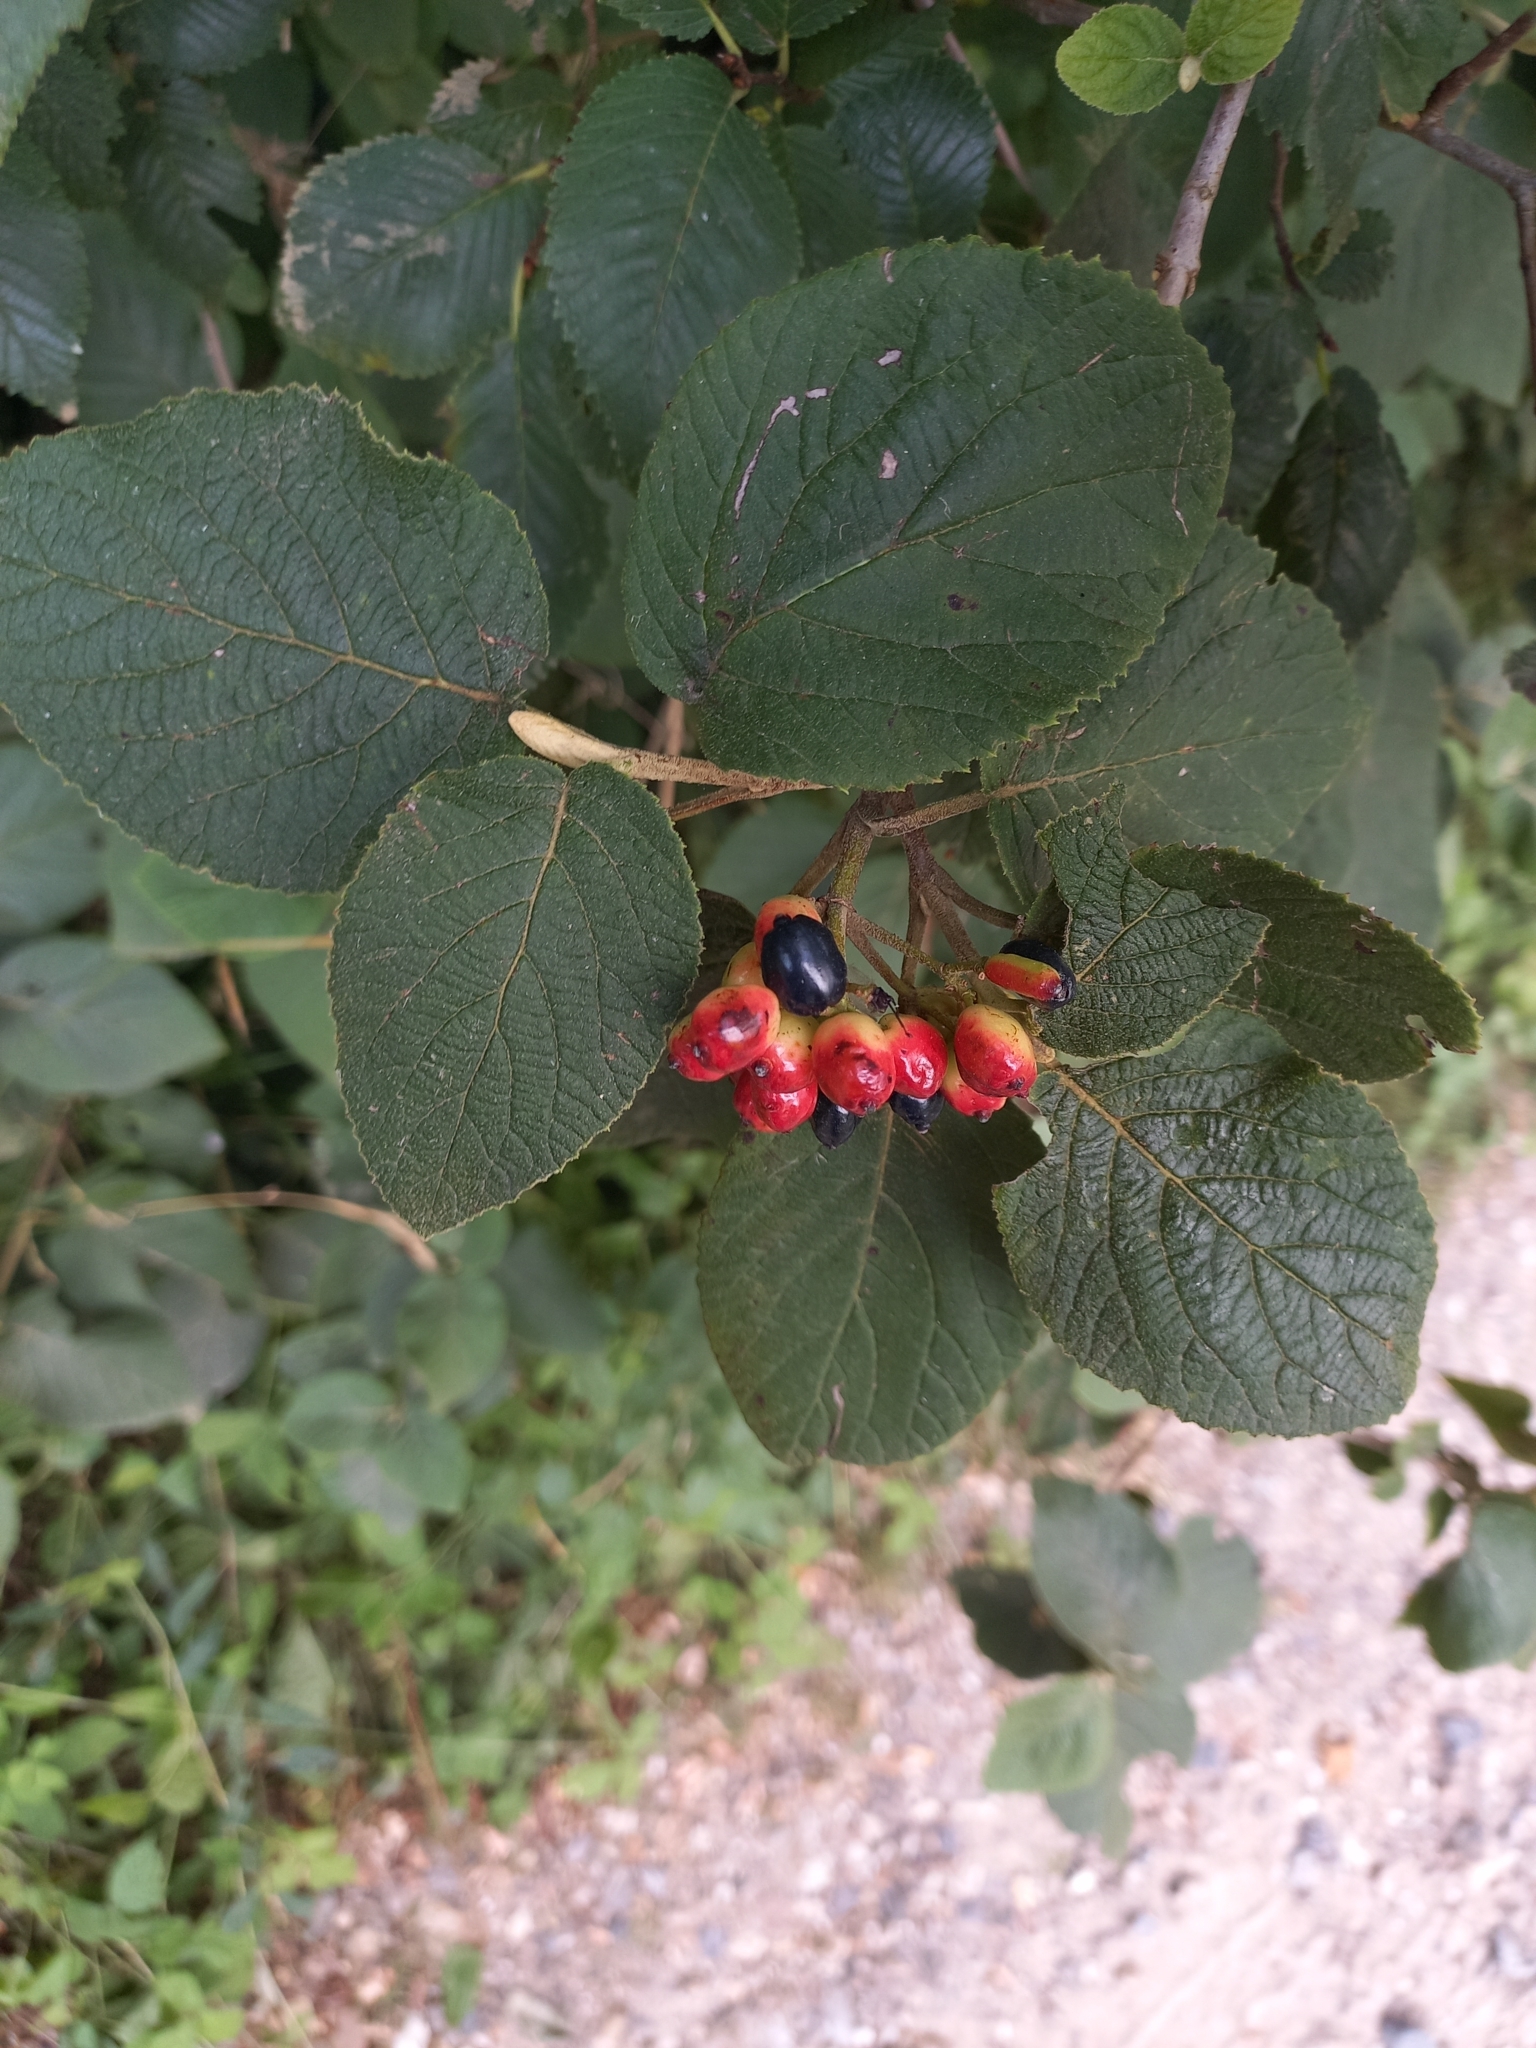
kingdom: Plantae
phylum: Tracheophyta
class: Magnoliopsida
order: Dipsacales
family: Viburnaceae
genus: Viburnum
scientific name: Viburnum lantana
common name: Wayfaring tree
